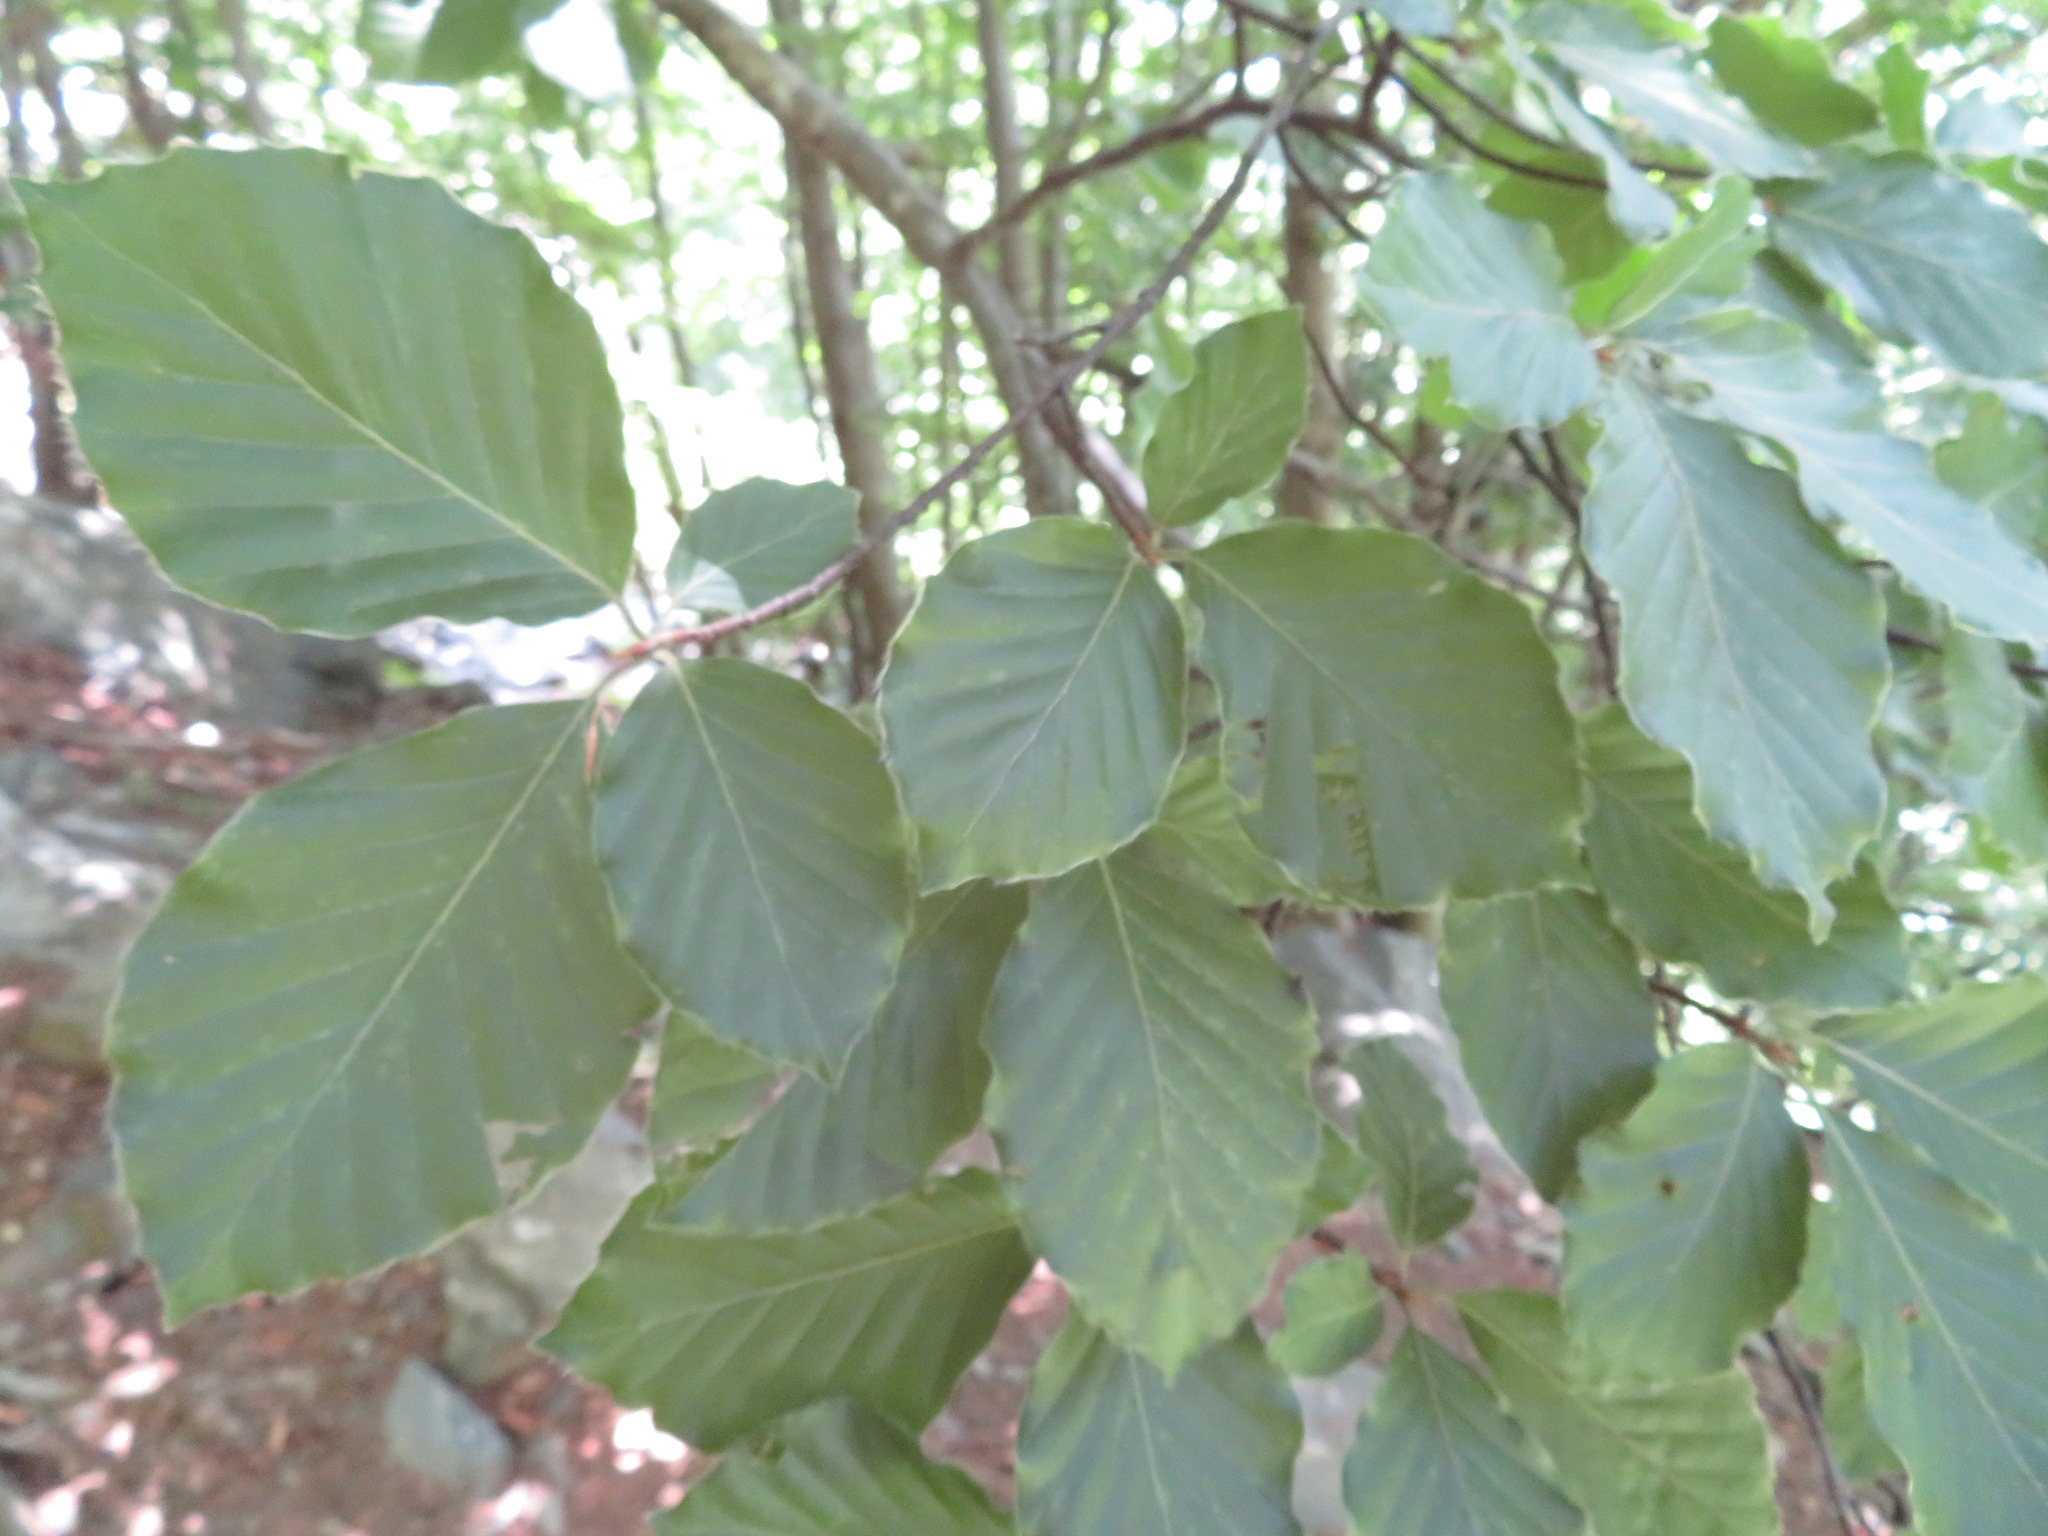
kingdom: Plantae
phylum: Tracheophyta
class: Magnoliopsida
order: Fagales
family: Fagaceae
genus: Fagus
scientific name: Fagus sylvatica
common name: Beech
